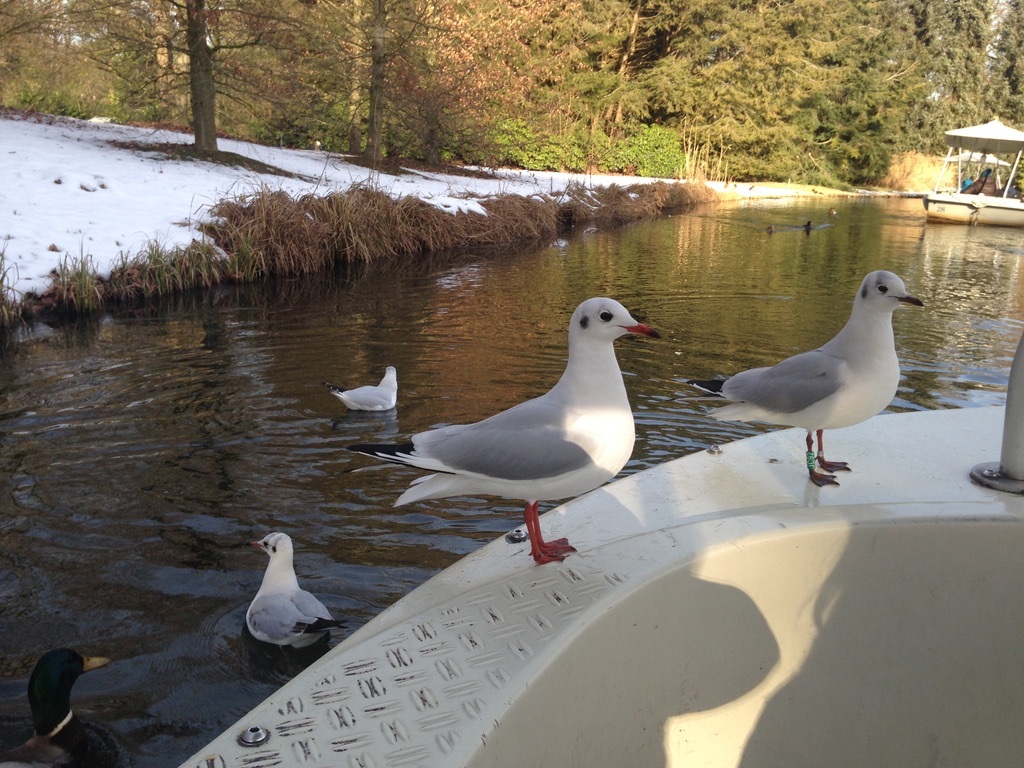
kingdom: Animalia
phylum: Chordata
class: Aves
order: Charadriiformes
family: Laridae
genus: Chroicocephalus
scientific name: Chroicocephalus ridibundus
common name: Black-headed gull
